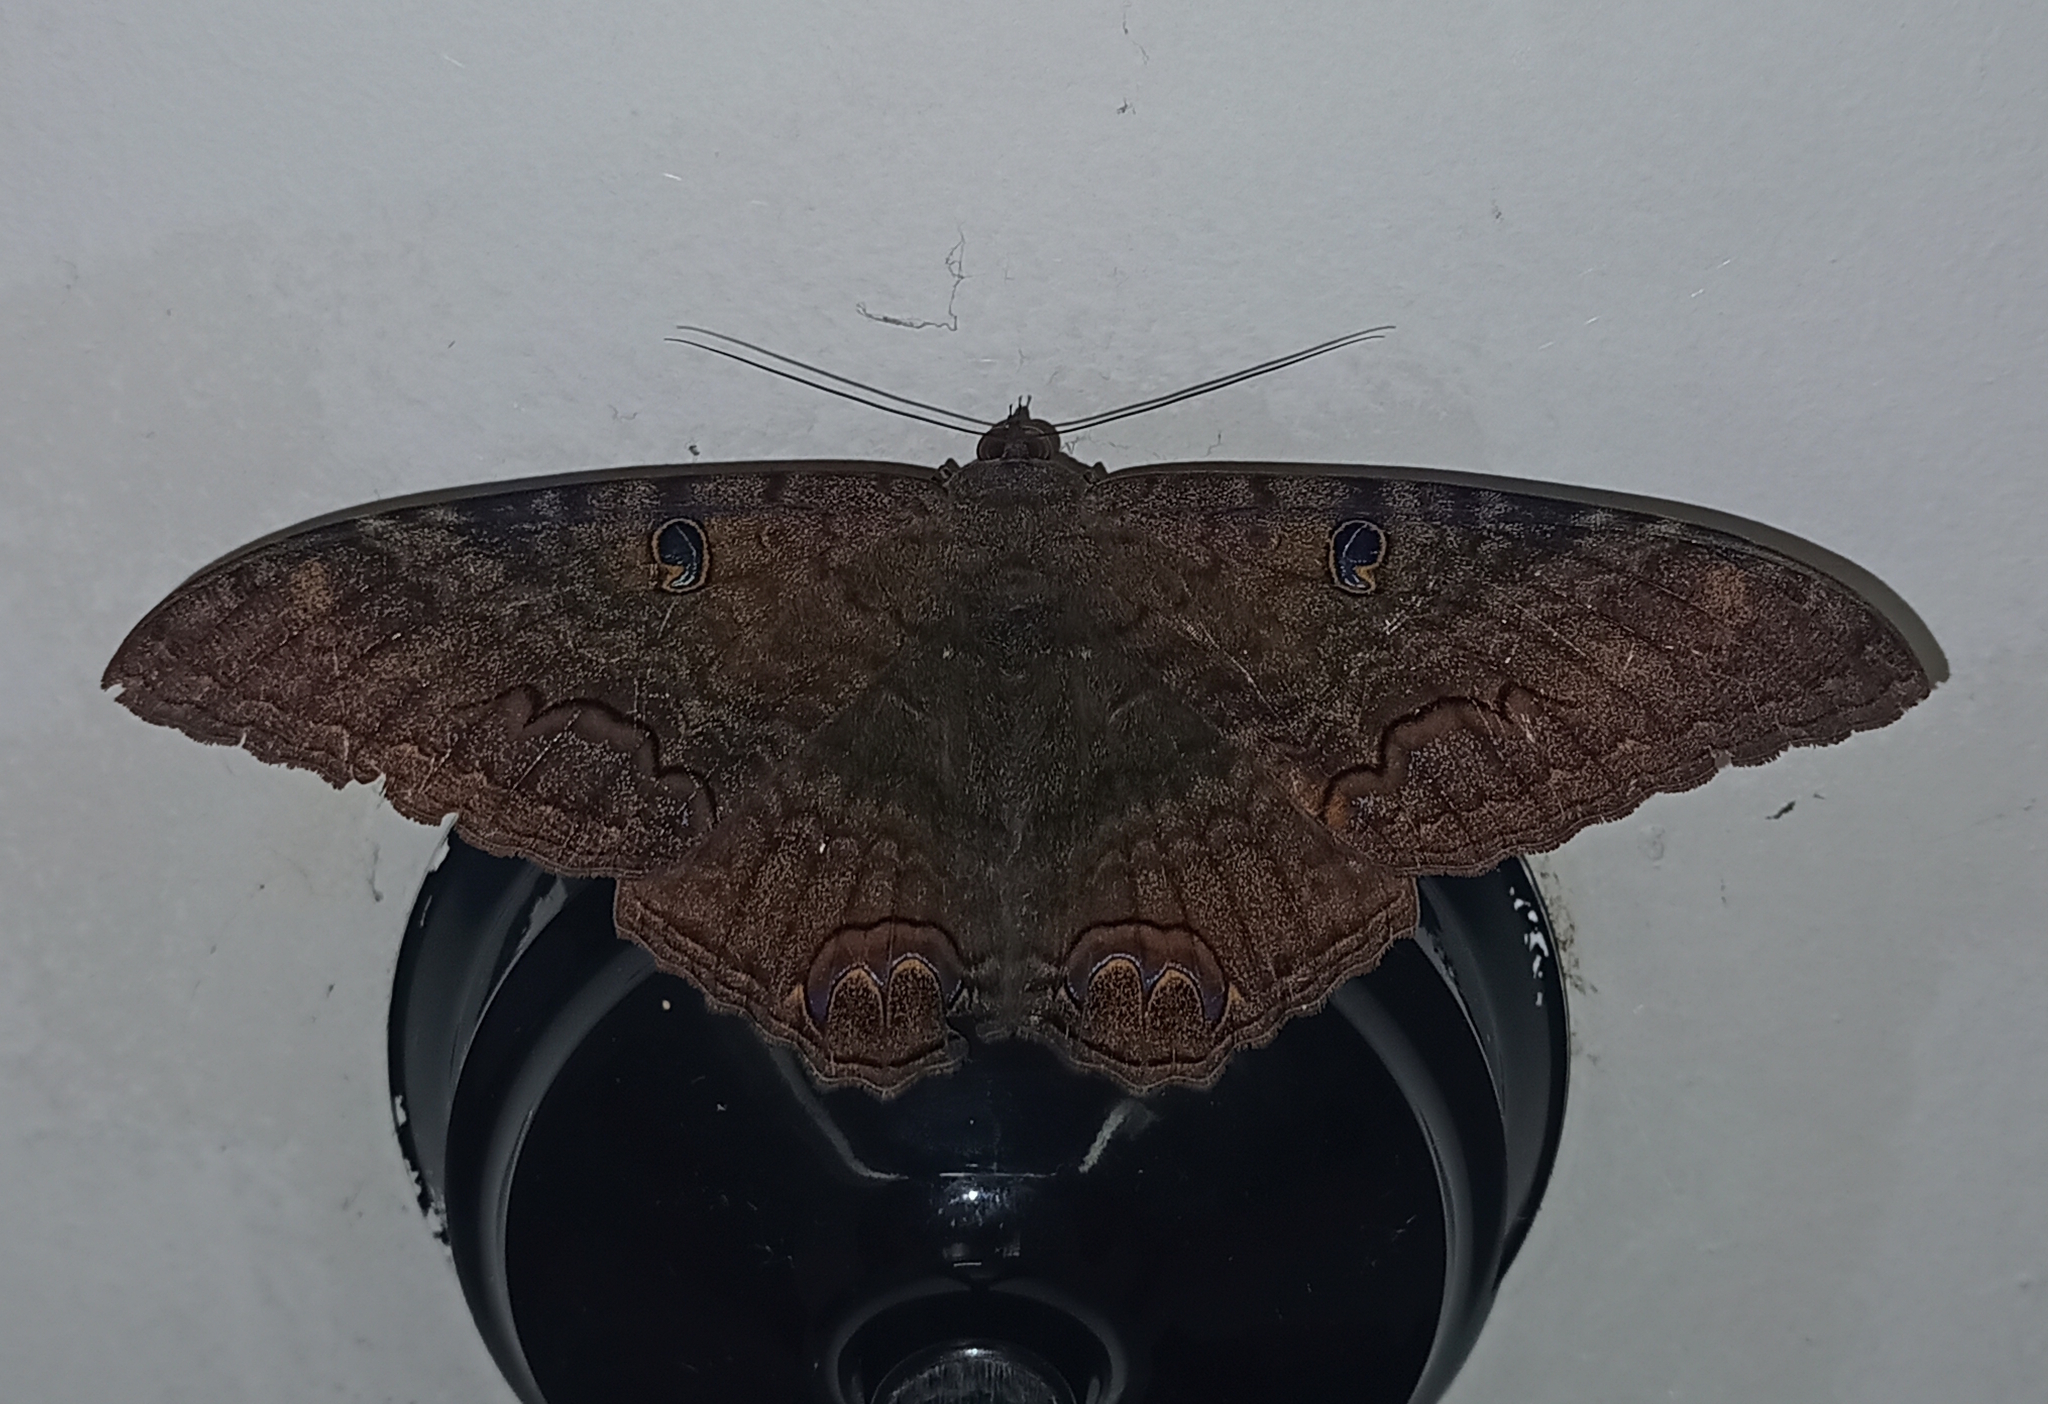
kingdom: Animalia
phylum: Arthropoda
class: Insecta
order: Lepidoptera
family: Erebidae
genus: Ascalapha
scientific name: Ascalapha odorata
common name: Black witch
